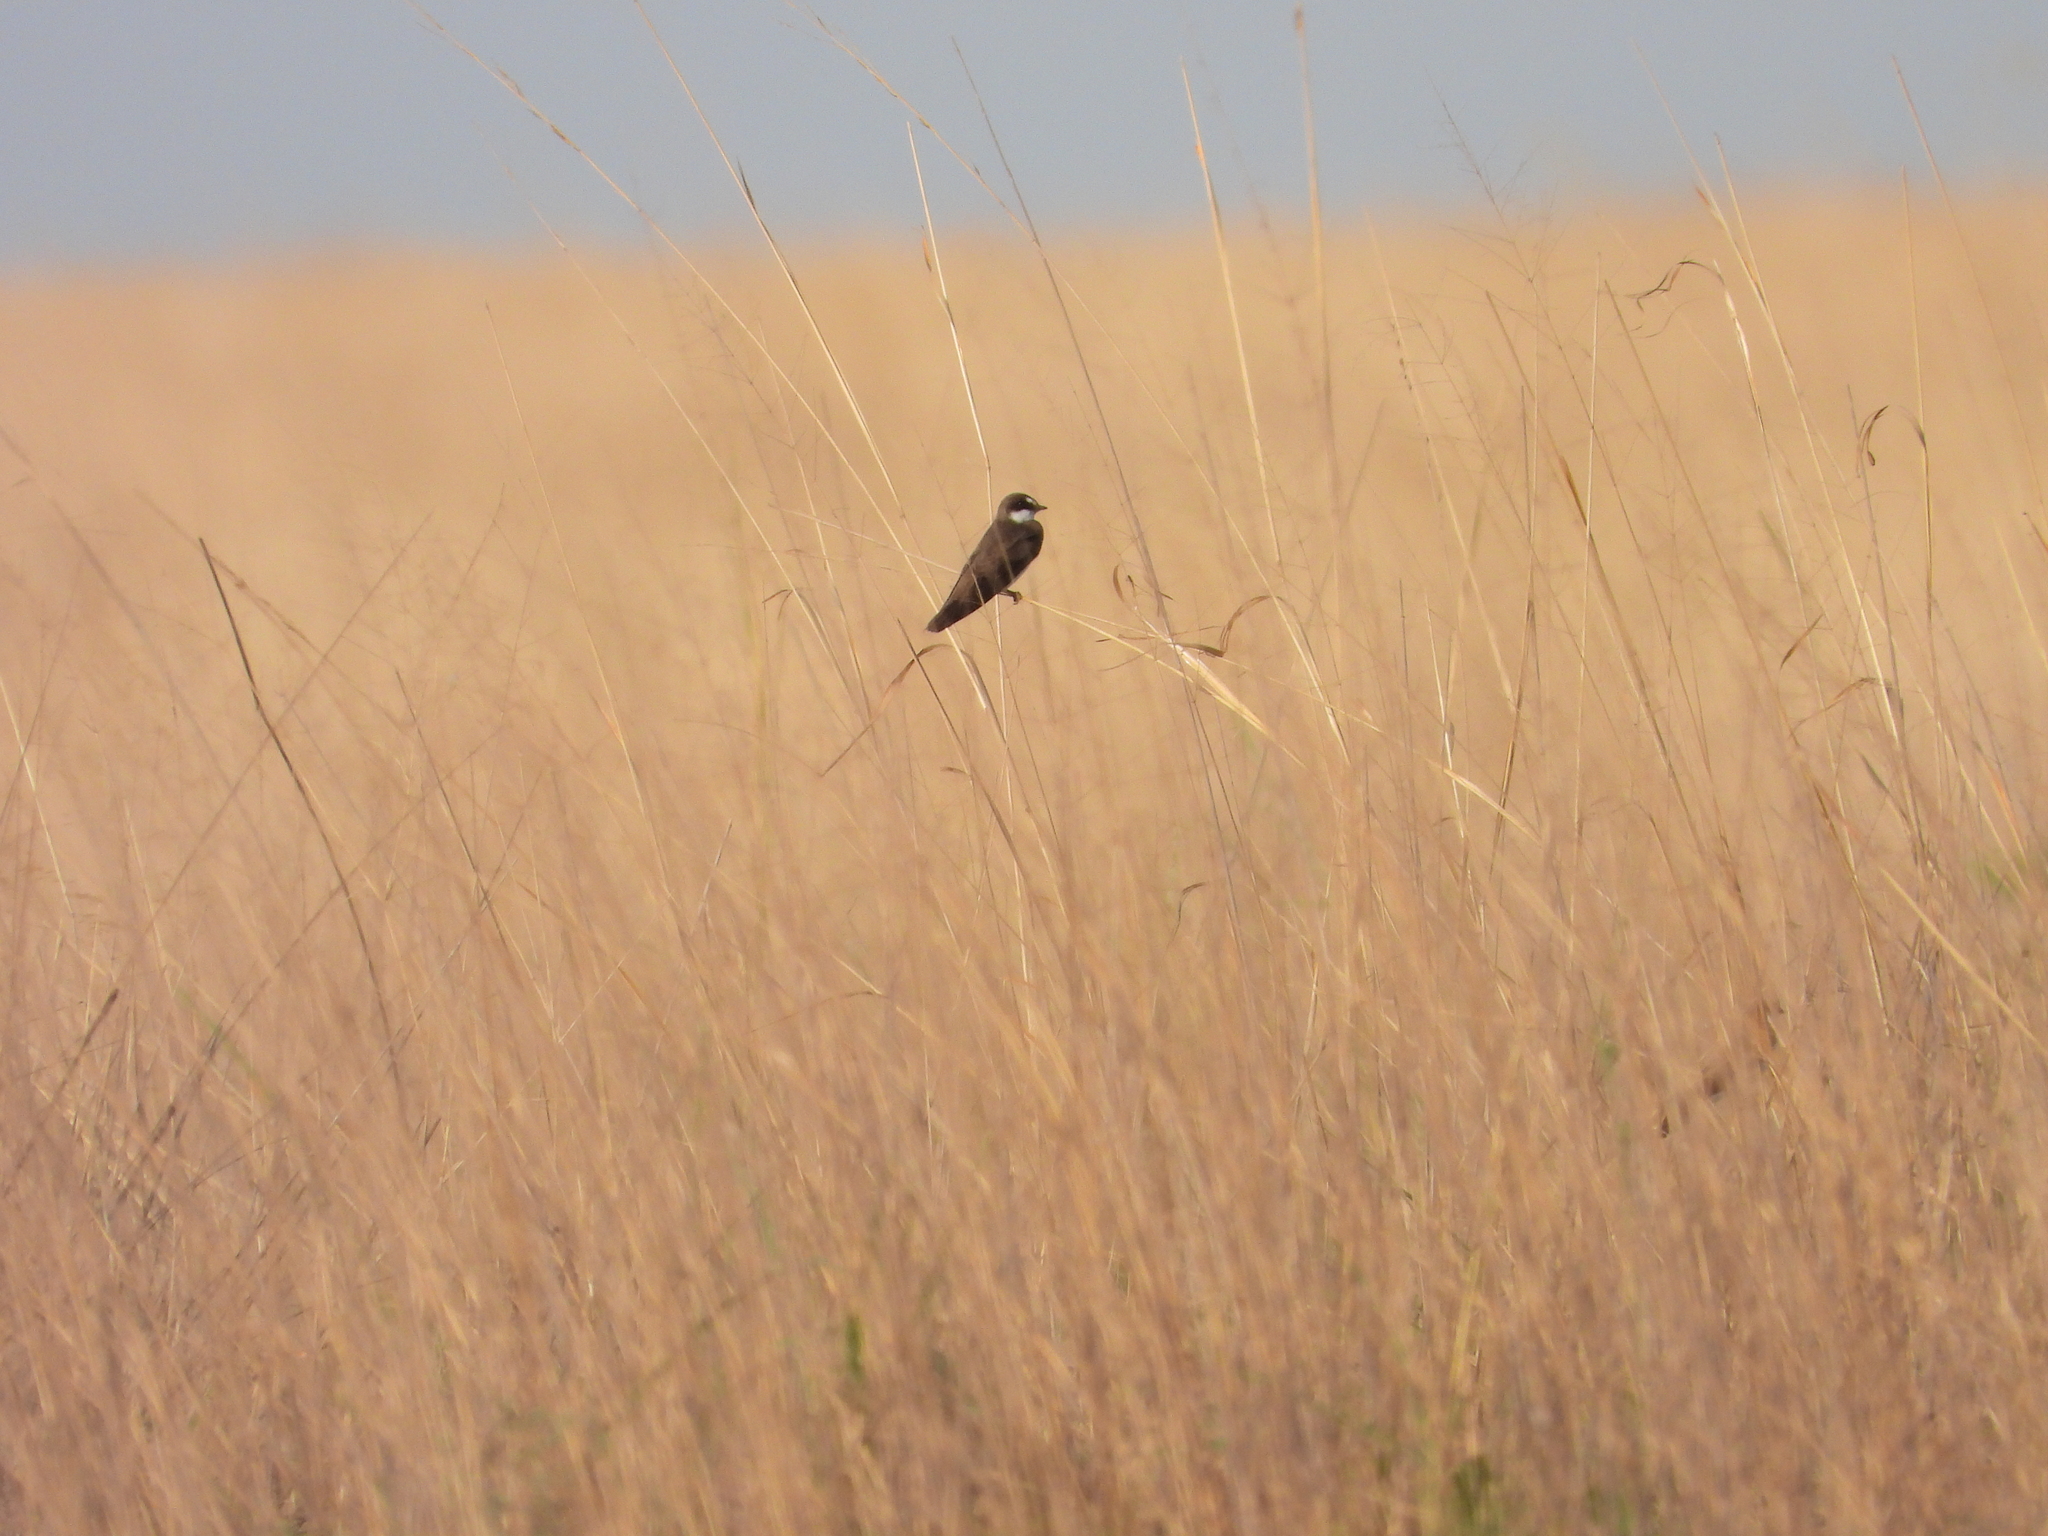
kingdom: Animalia
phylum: Chordata
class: Aves
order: Passeriformes
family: Hirundinidae
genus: Riparia
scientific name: Riparia cincta
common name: Banded martin
